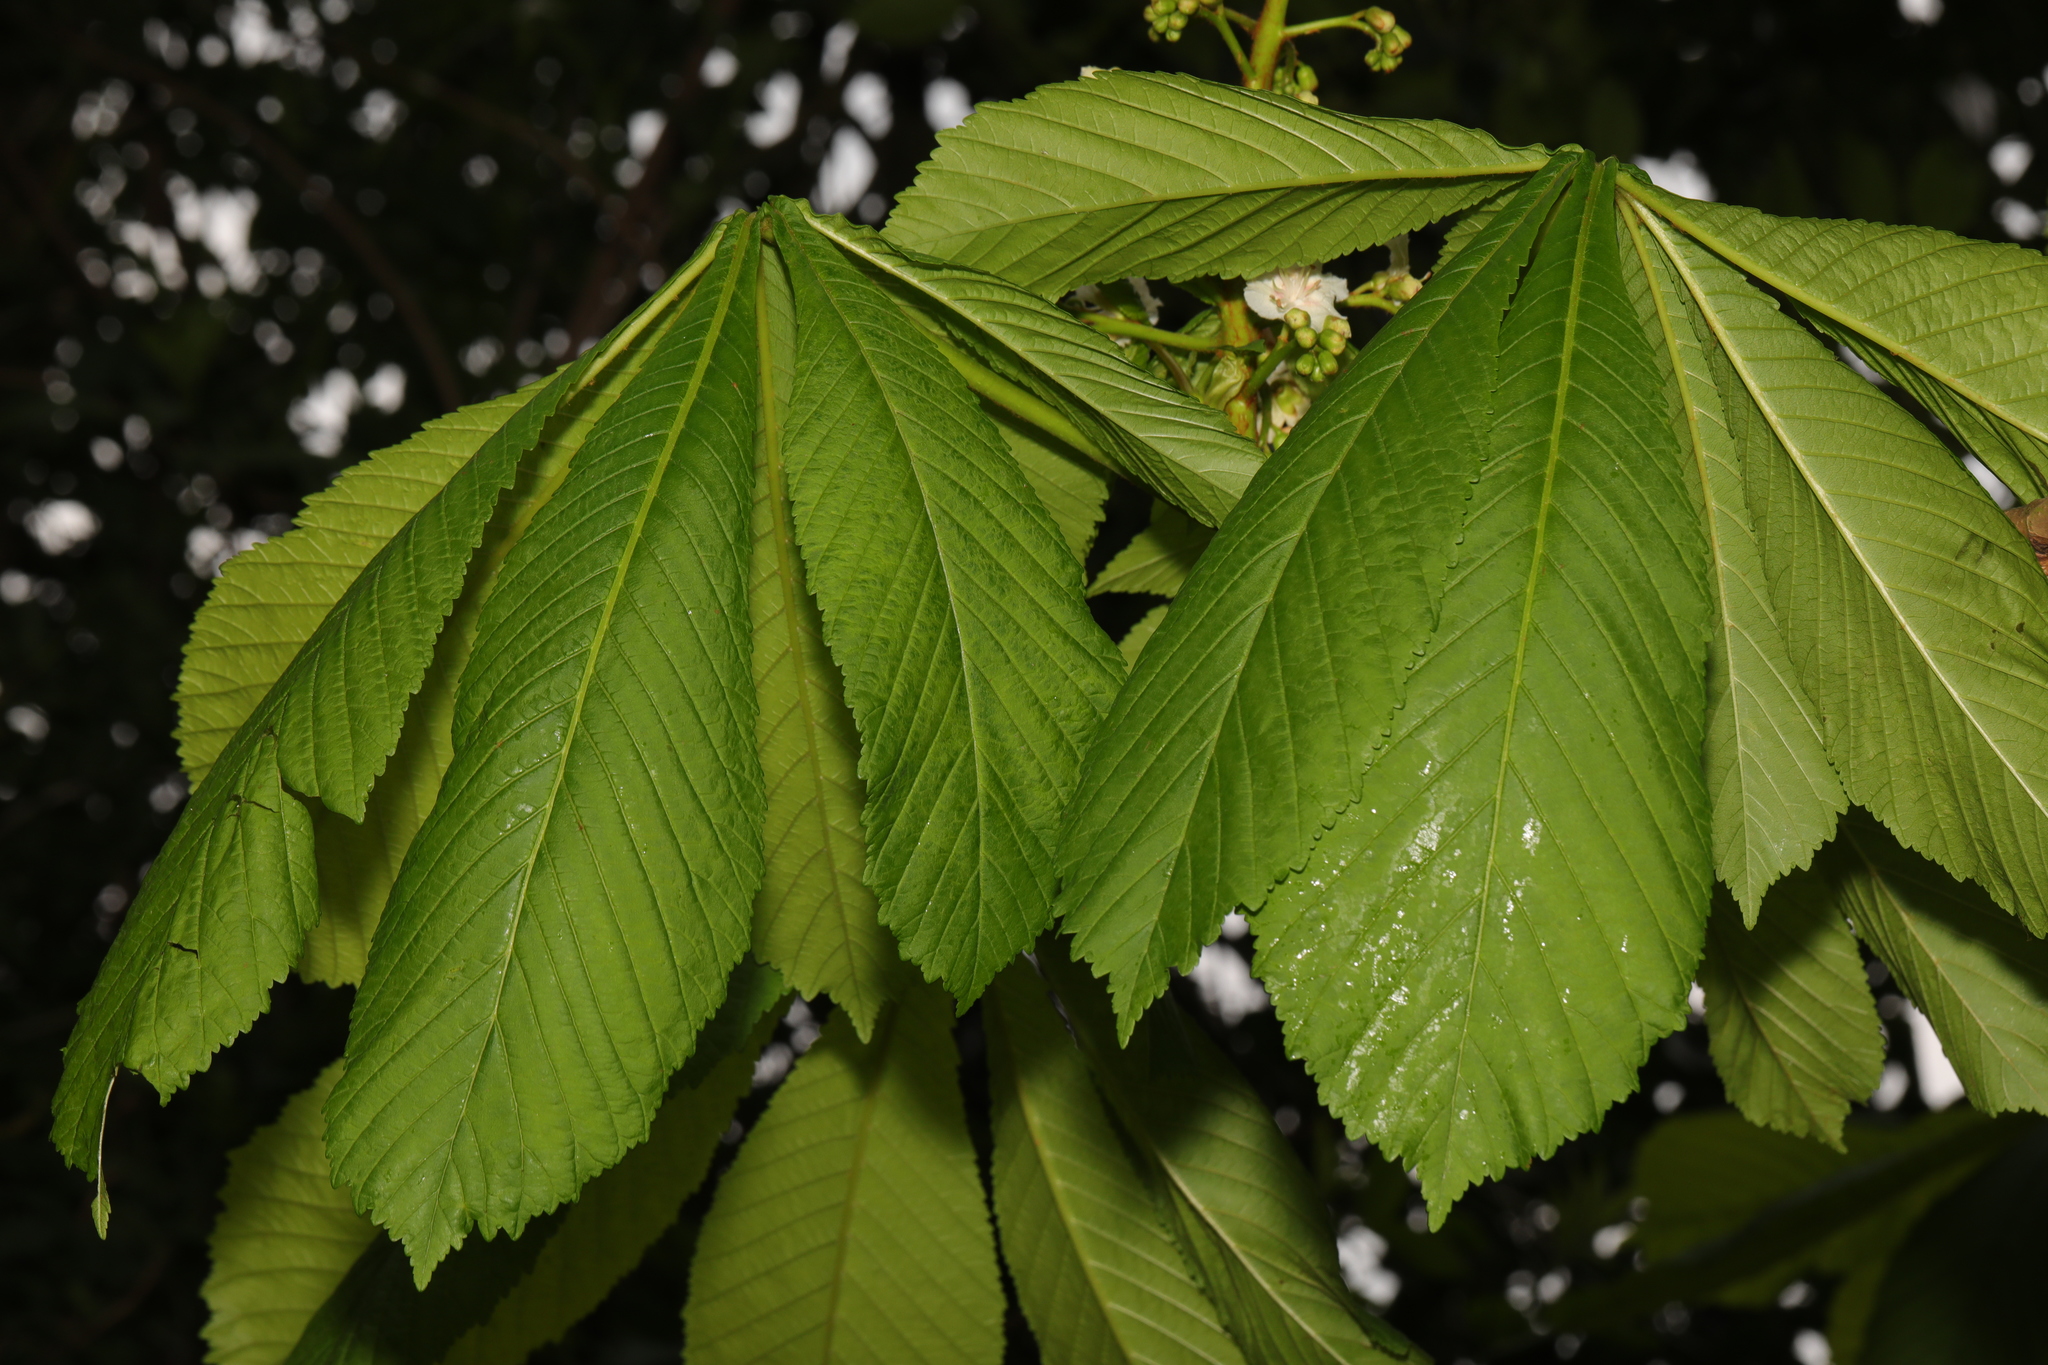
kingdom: Plantae
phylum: Tracheophyta
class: Magnoliopsida
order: Sapindales
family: Sapindaceae
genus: Aesculus
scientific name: Aesculus hippocastanum
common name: Horse-chestnut
